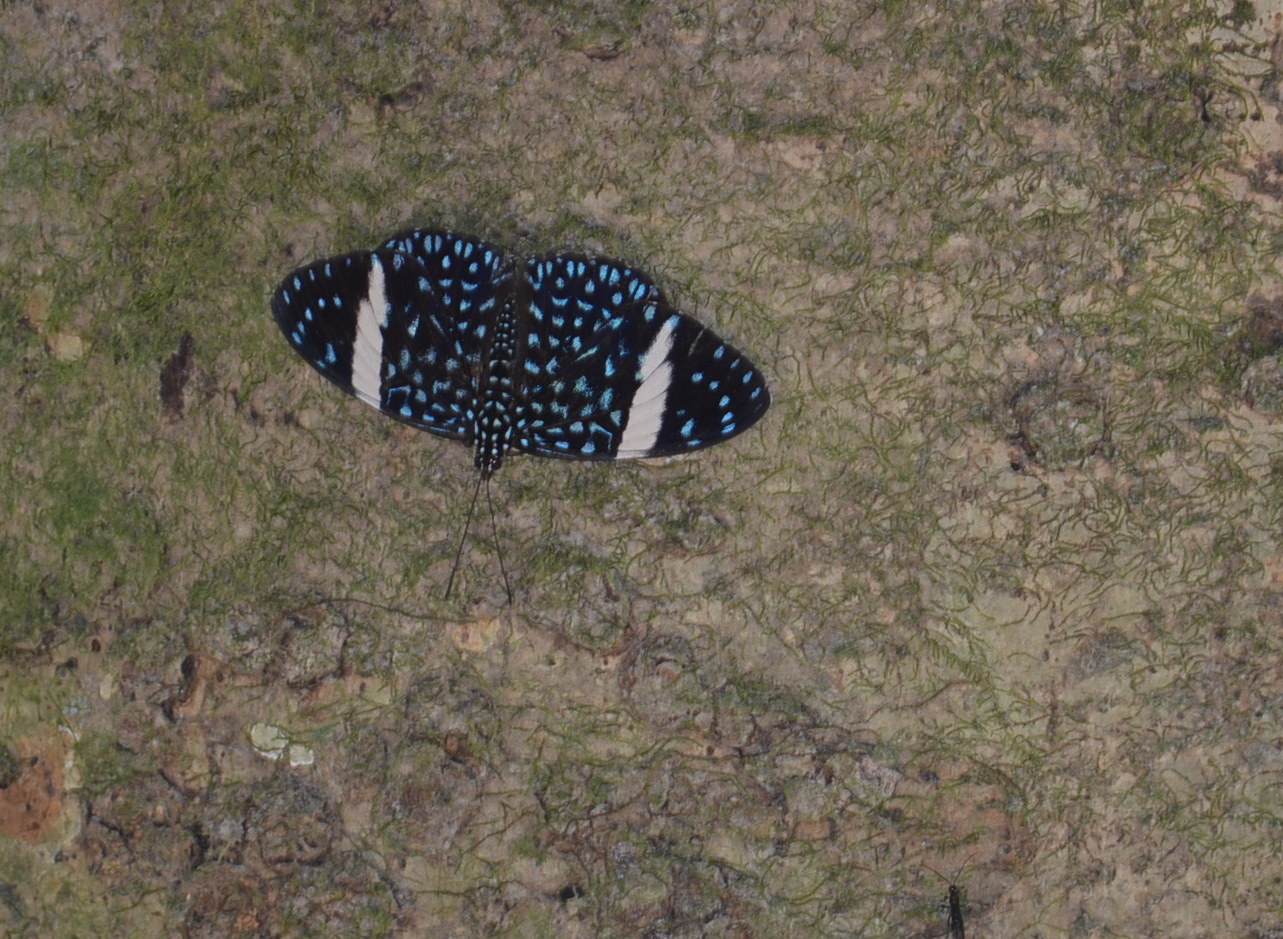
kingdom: Animalia
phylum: Arthropoda
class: Insecta
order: Lepidoptera
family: Nymphalidae
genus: Hamadryas
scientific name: Hamadryas laodamia
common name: Starry night cracker
